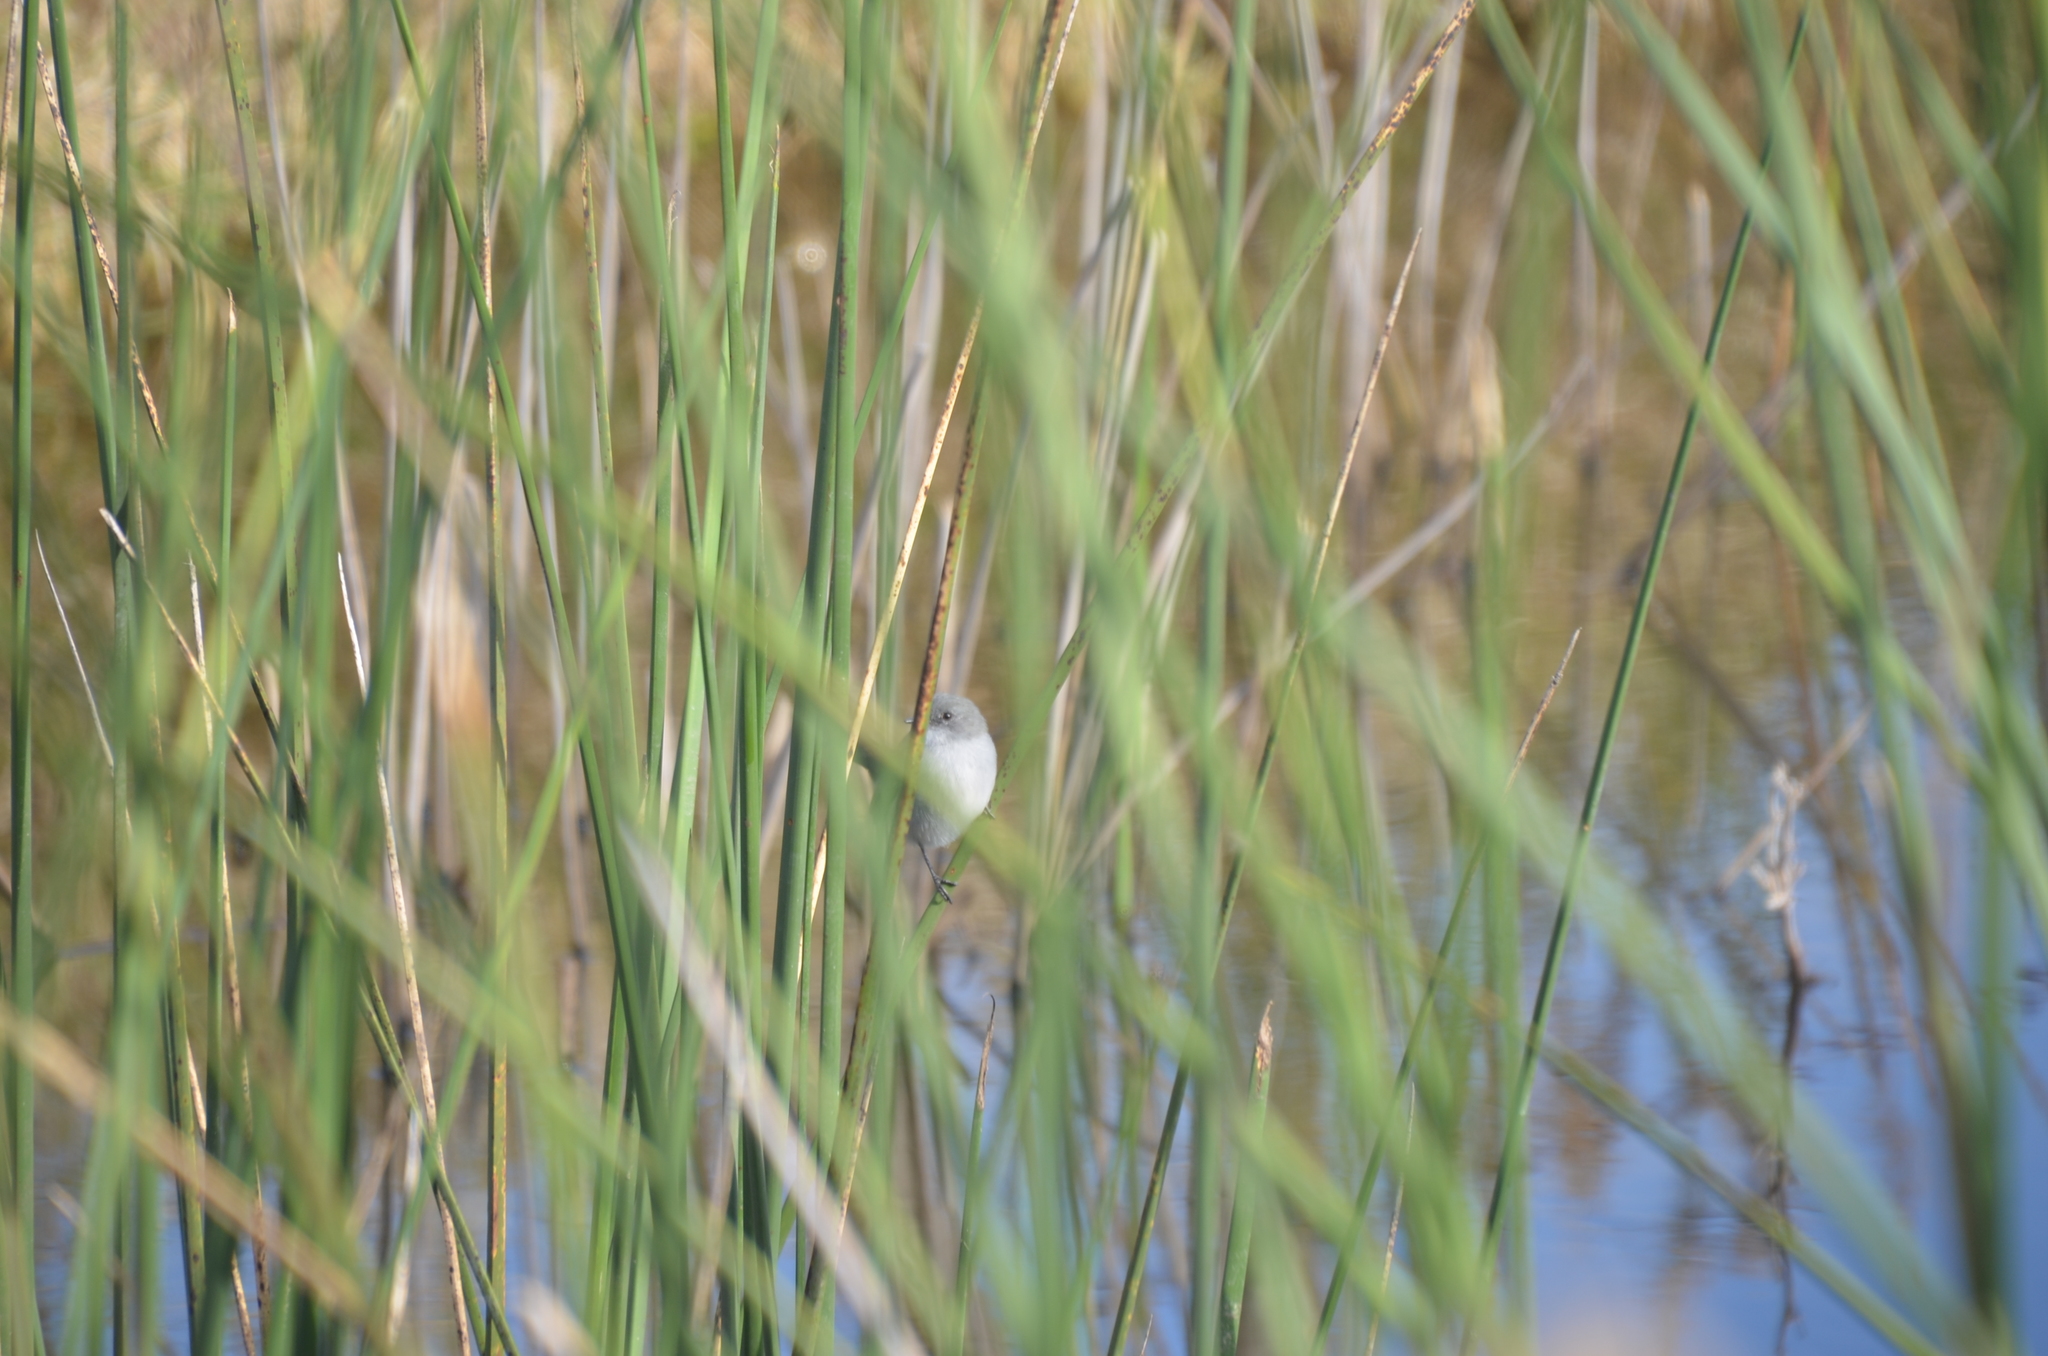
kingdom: Animalia
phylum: Chordata
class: Aves
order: Passeriformes
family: Tyrannidae
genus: Serpophaga
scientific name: Serpophaga nigricans
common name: Sooty tyrannulet
